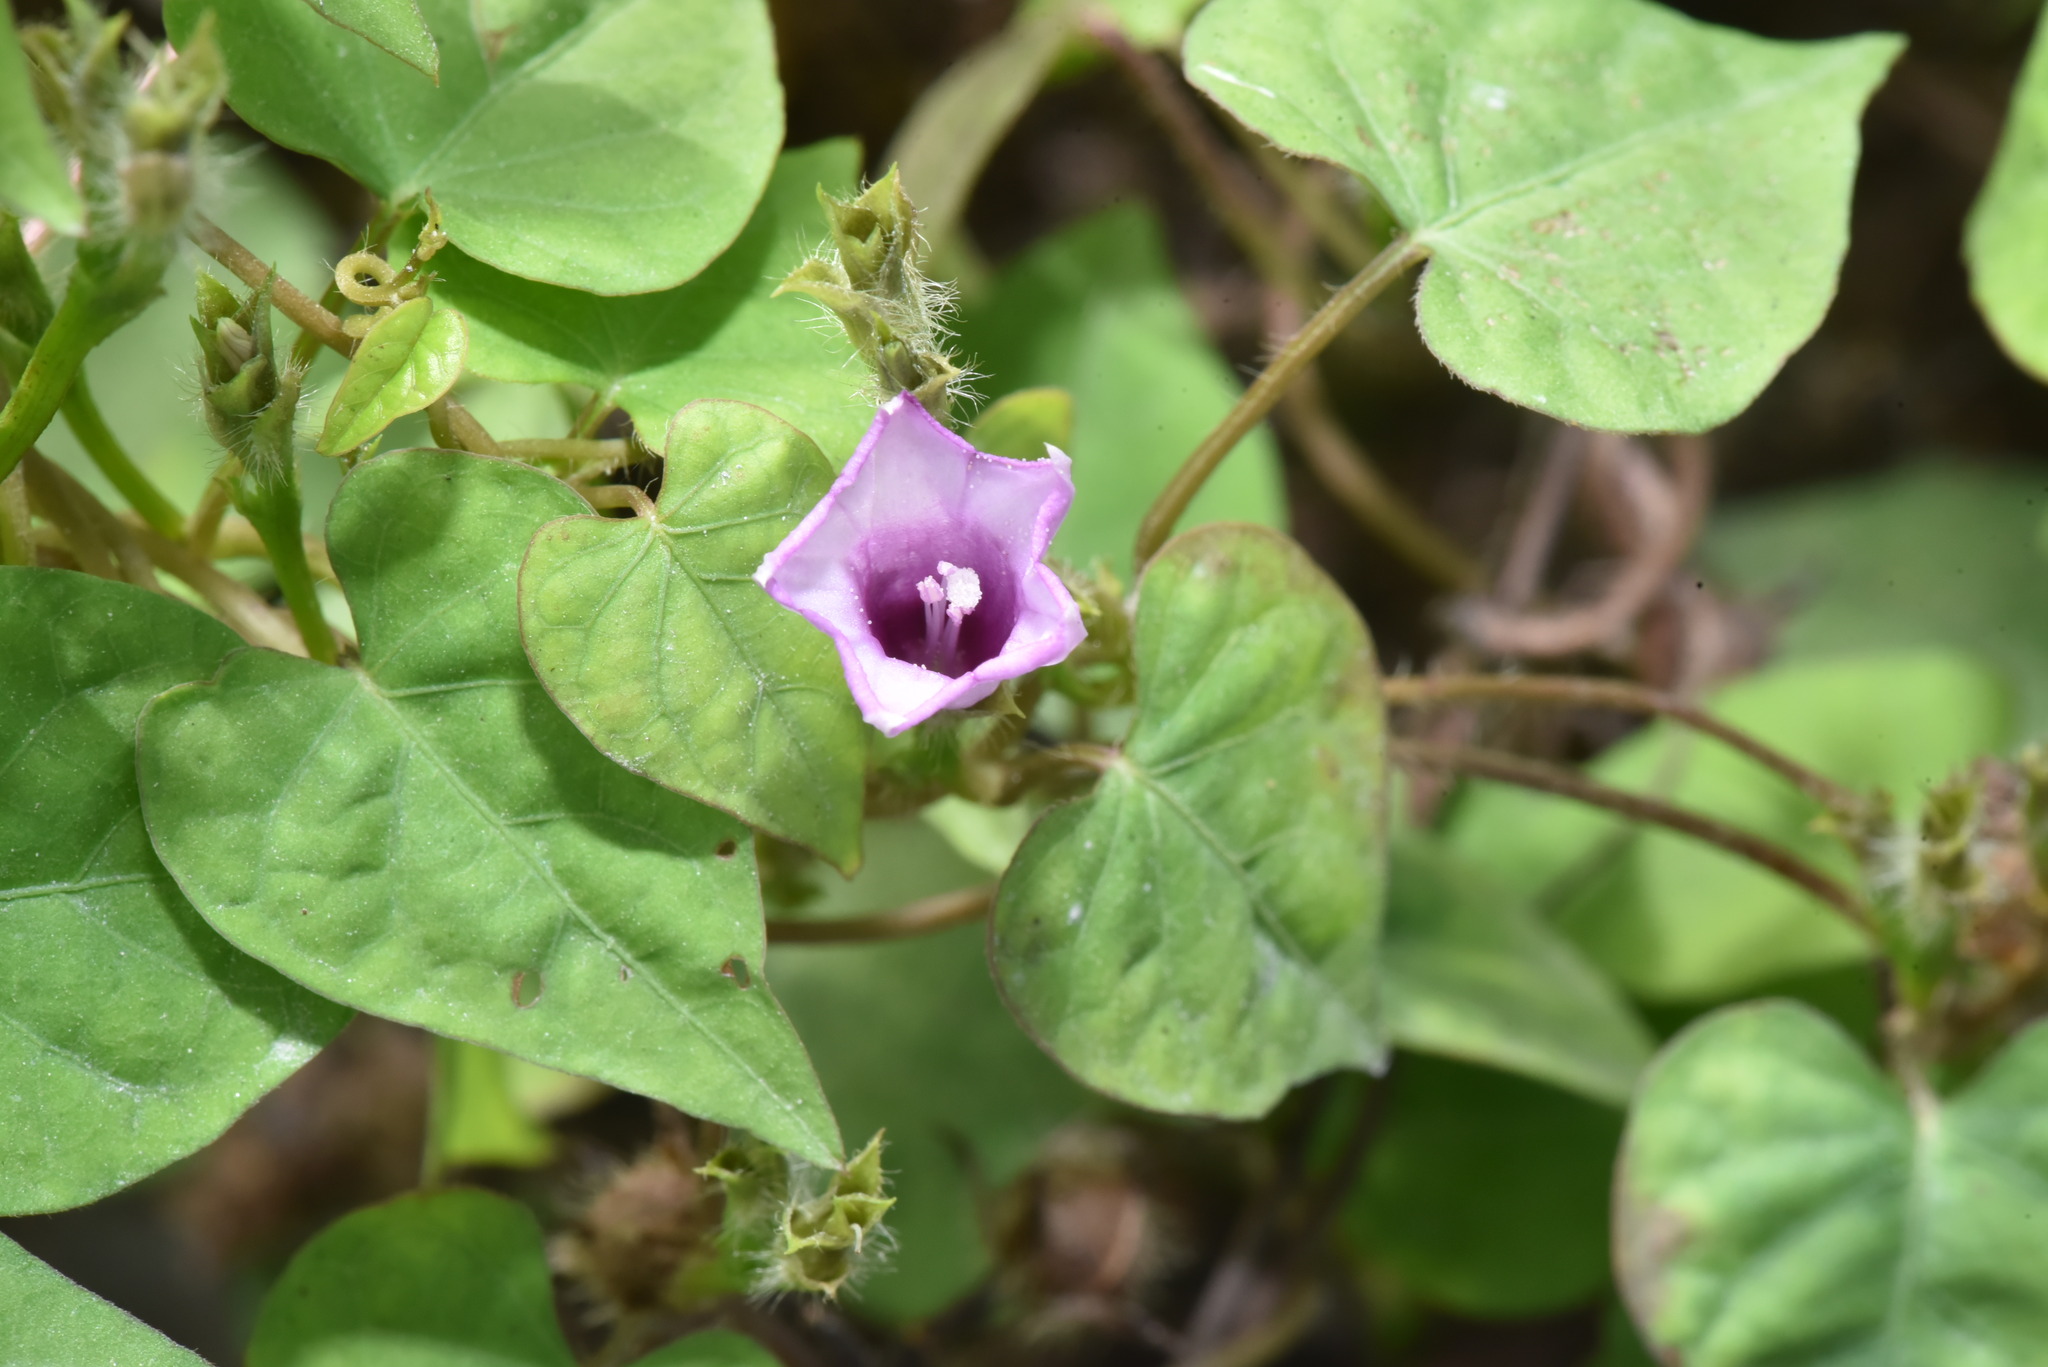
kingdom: Plantae
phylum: Tracheophyta
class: Magnoliopsida
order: Solanales
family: Convolvulaceae
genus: Ipomoea
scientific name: Ipomoea triloba
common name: Little-bell
